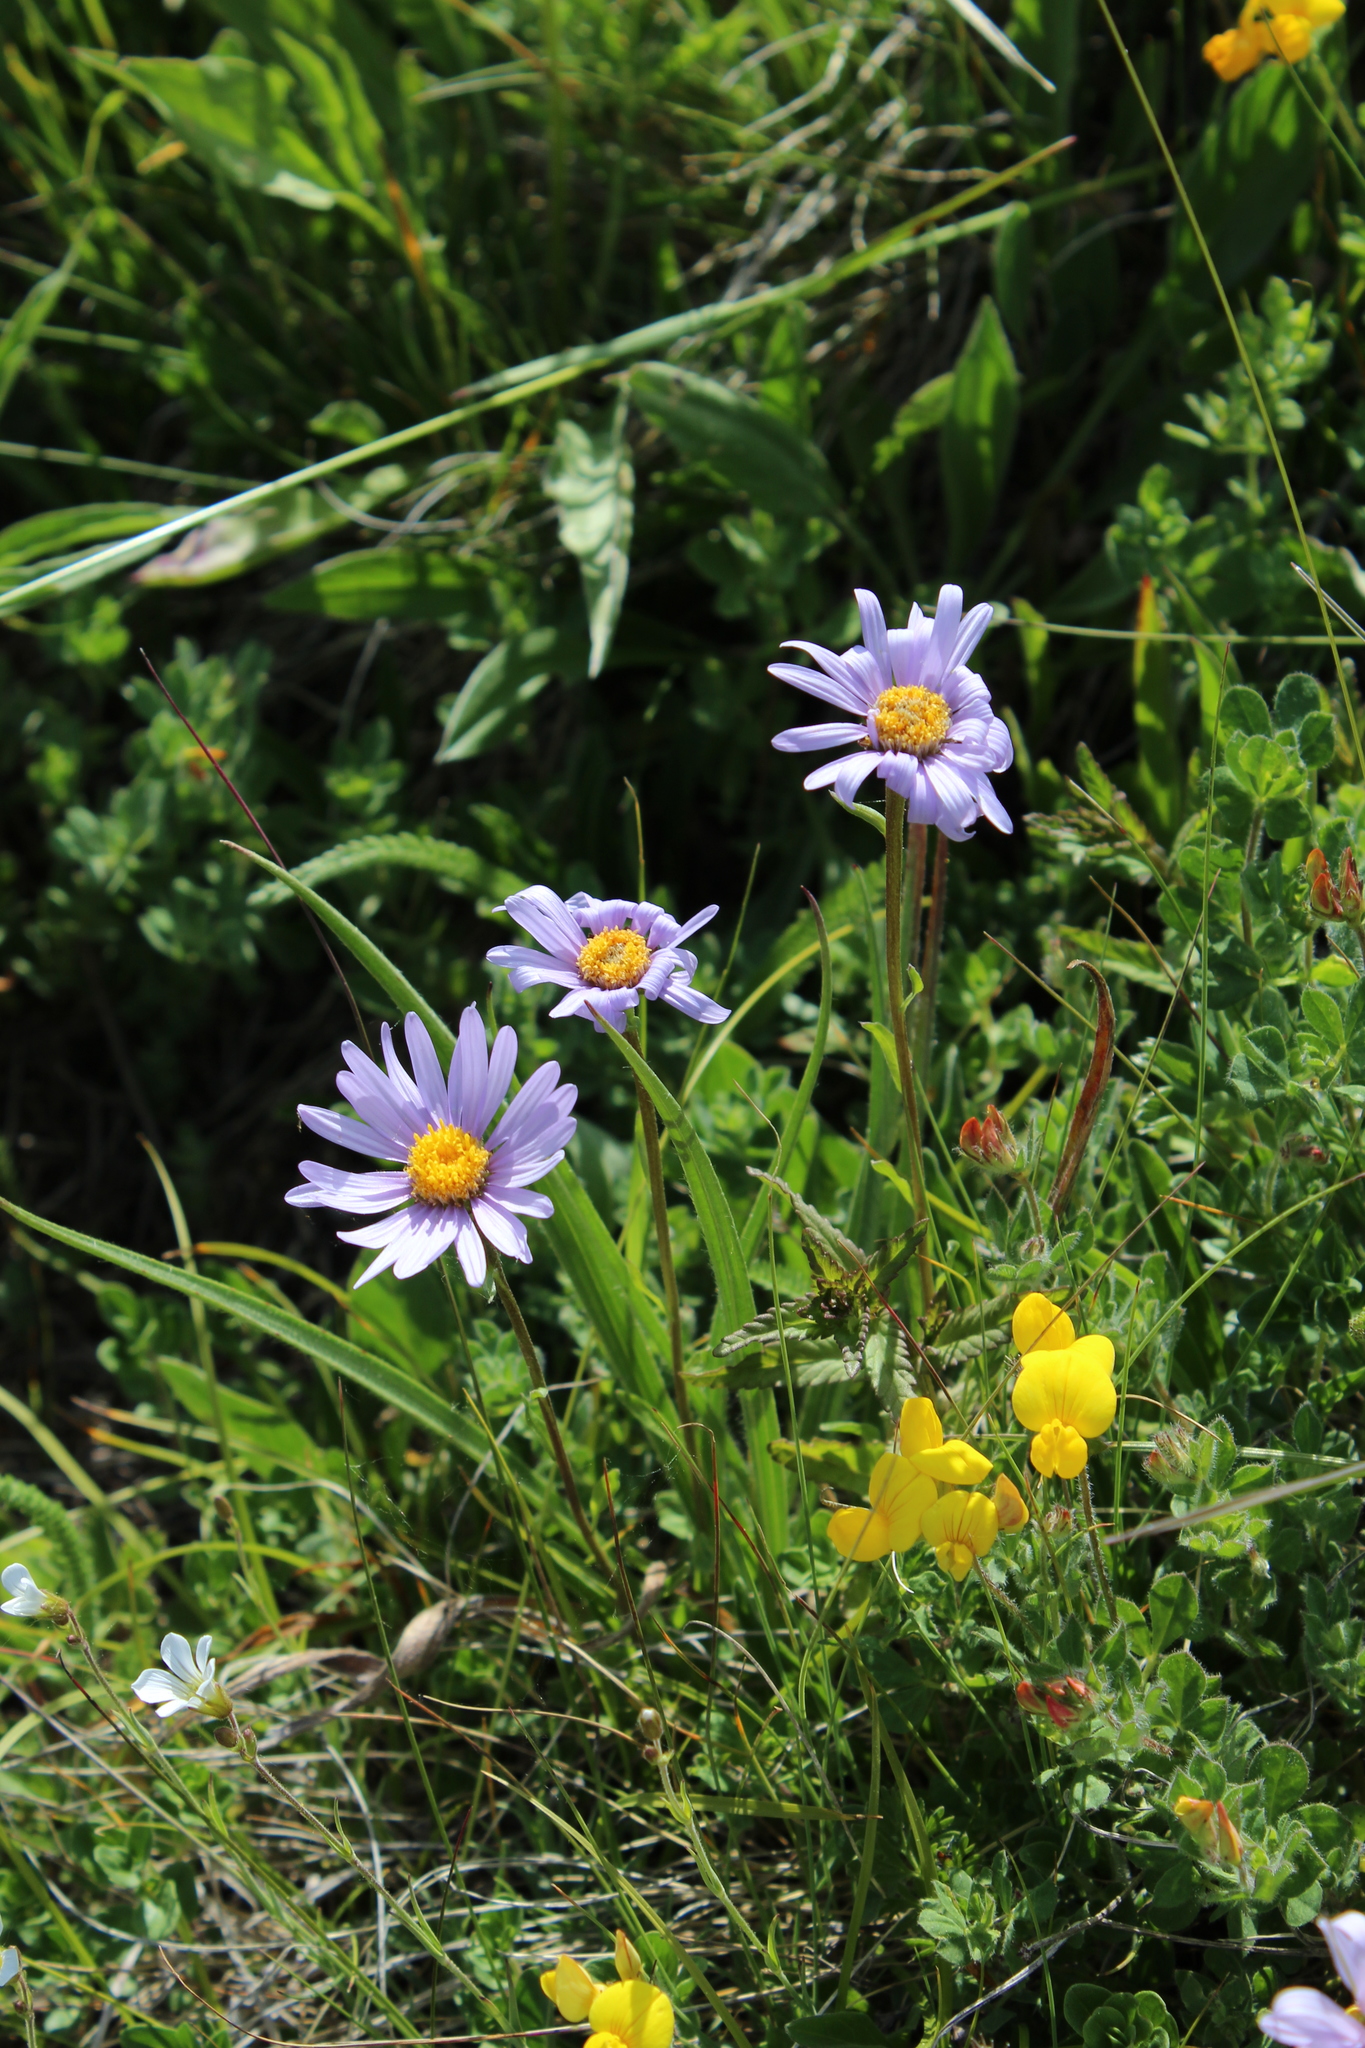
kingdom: Plantae
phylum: Tracheophyta
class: Magnoliopsida
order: Asterales
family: Asteraceae
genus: Aster
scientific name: Aster alpinus
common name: Alpine aster
